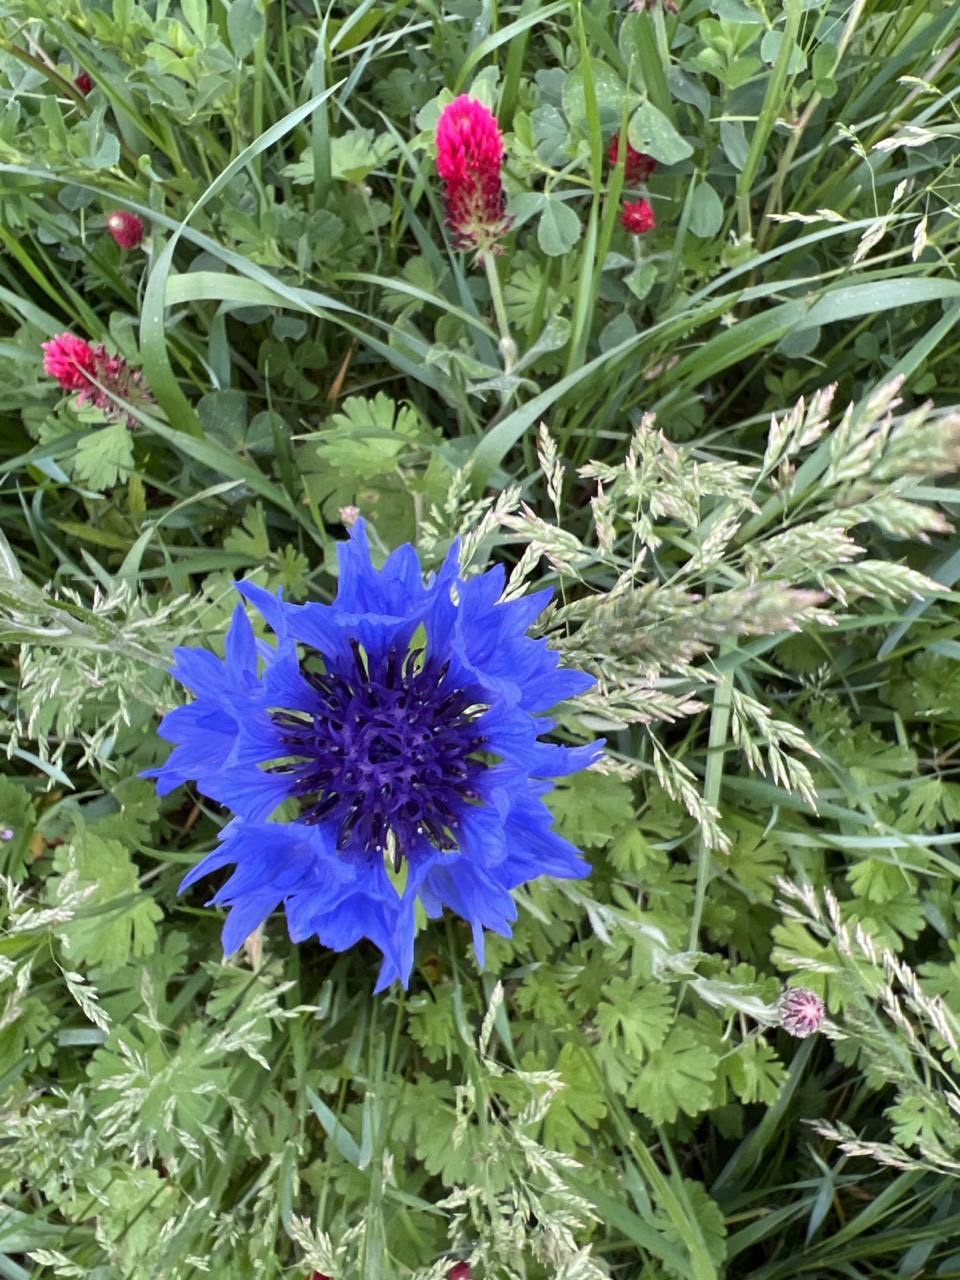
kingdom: Plantae
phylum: Tracheophyta
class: Magnoliopsida
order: Asterales
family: Asteraceae
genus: Centaurea
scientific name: Centaurea cyanus
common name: Cornflower
